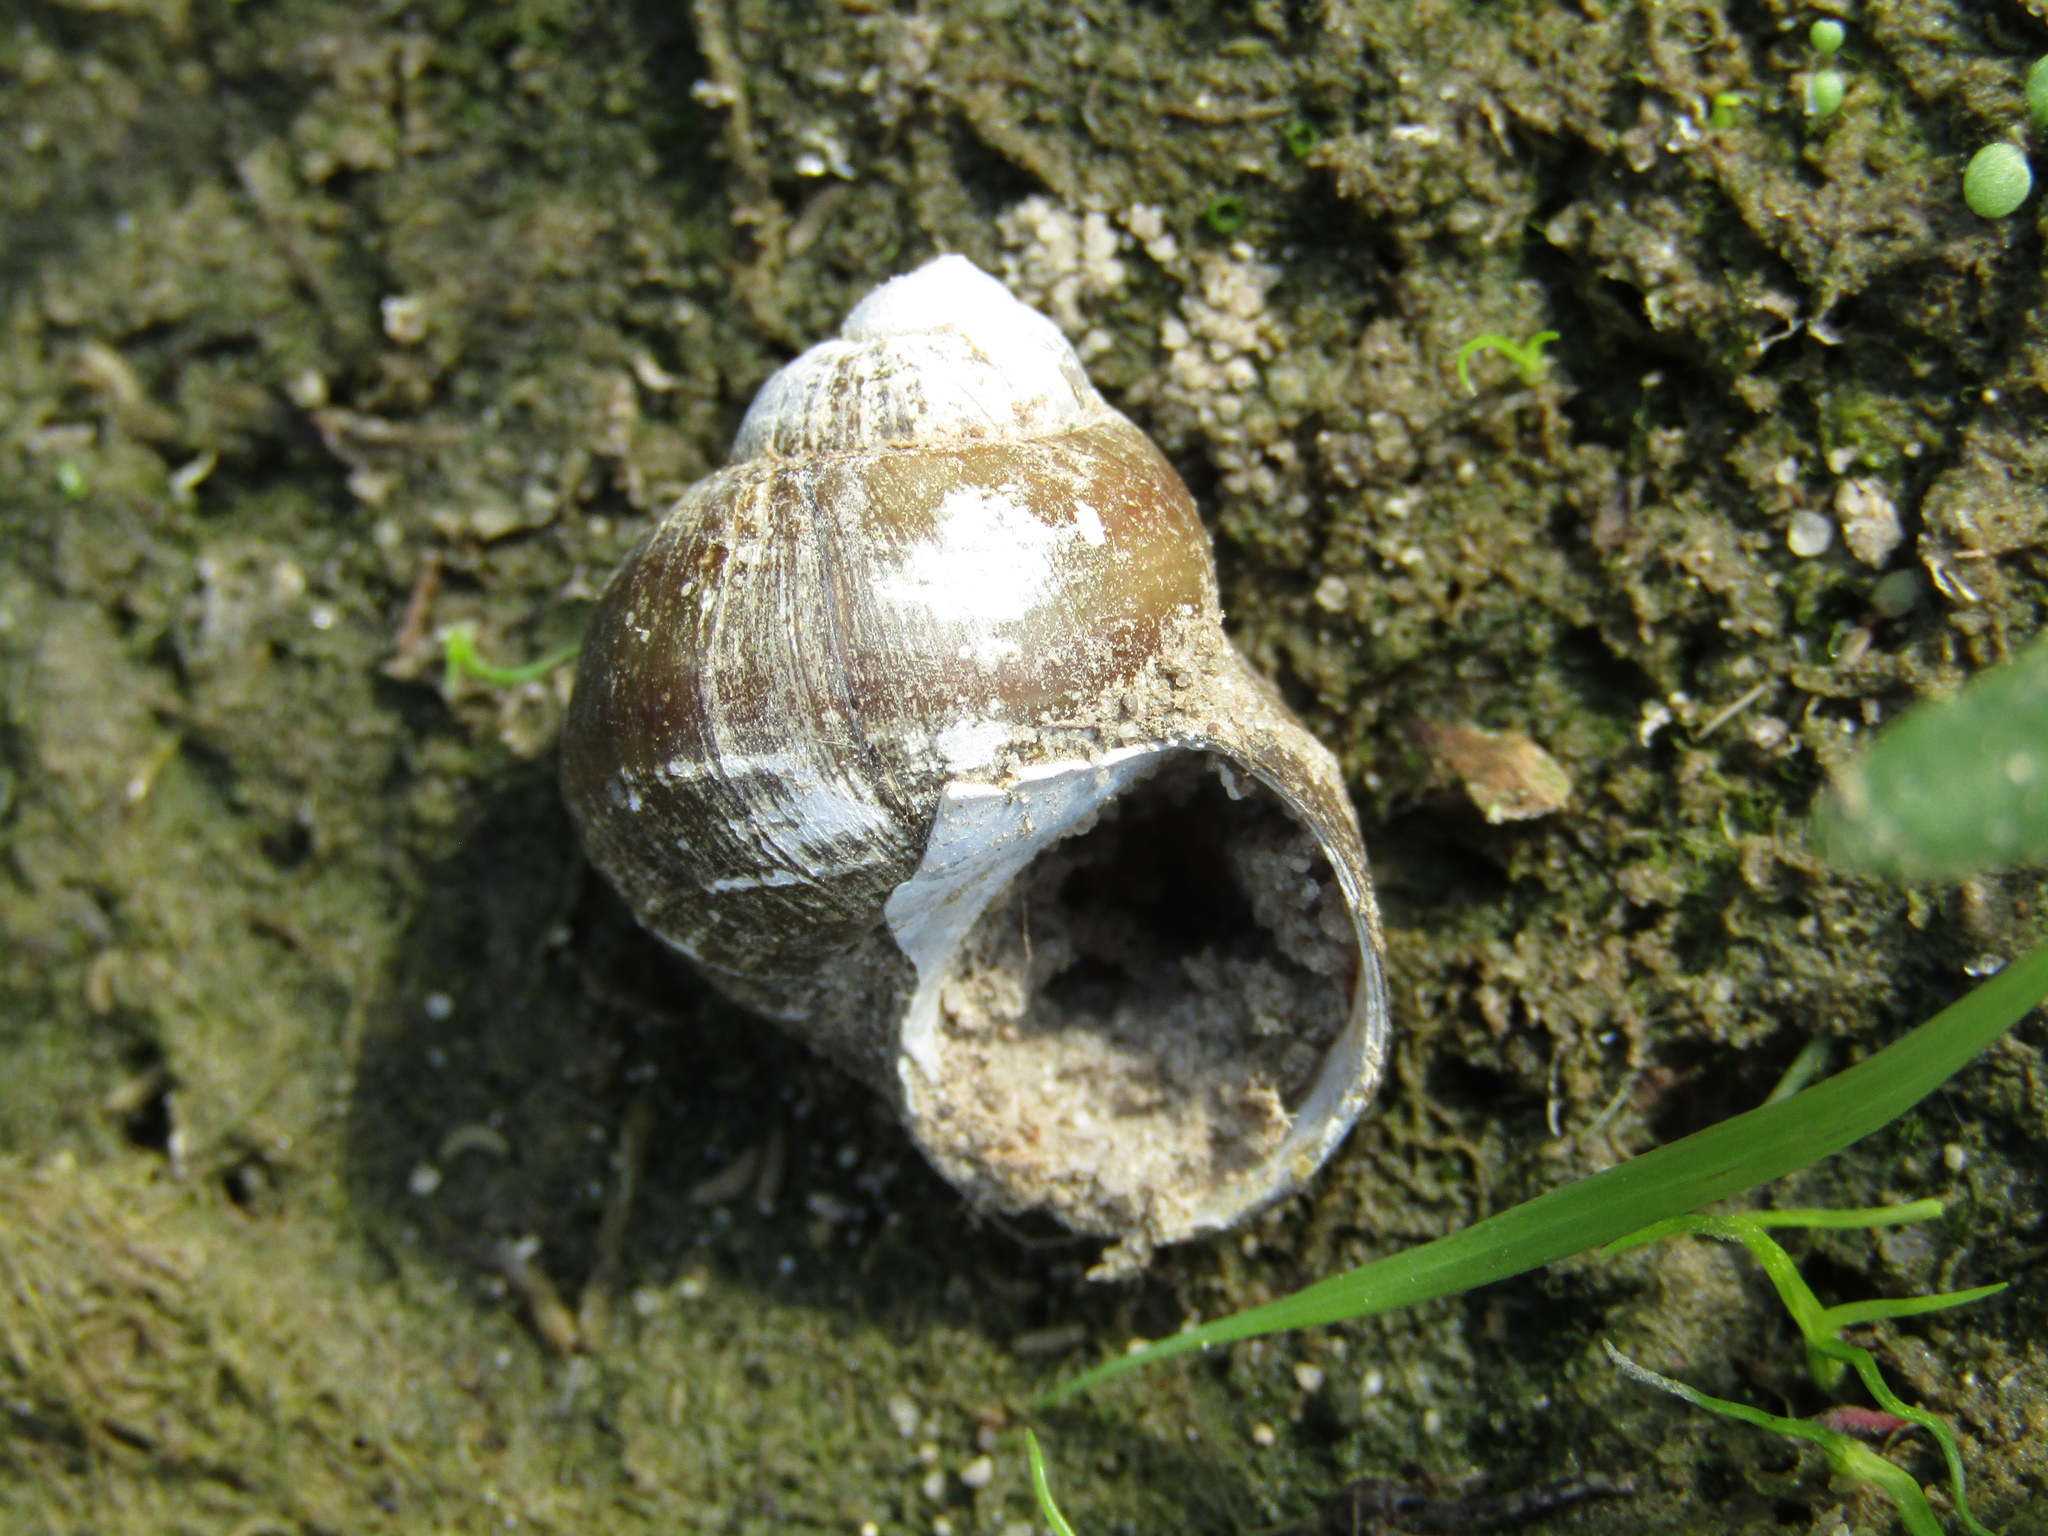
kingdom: Animalia
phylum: Mollusca
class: Gastropoda
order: Architaenioglossa
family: Viviparidae
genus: Viviparus
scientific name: Viviparus viviparus
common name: River snail
